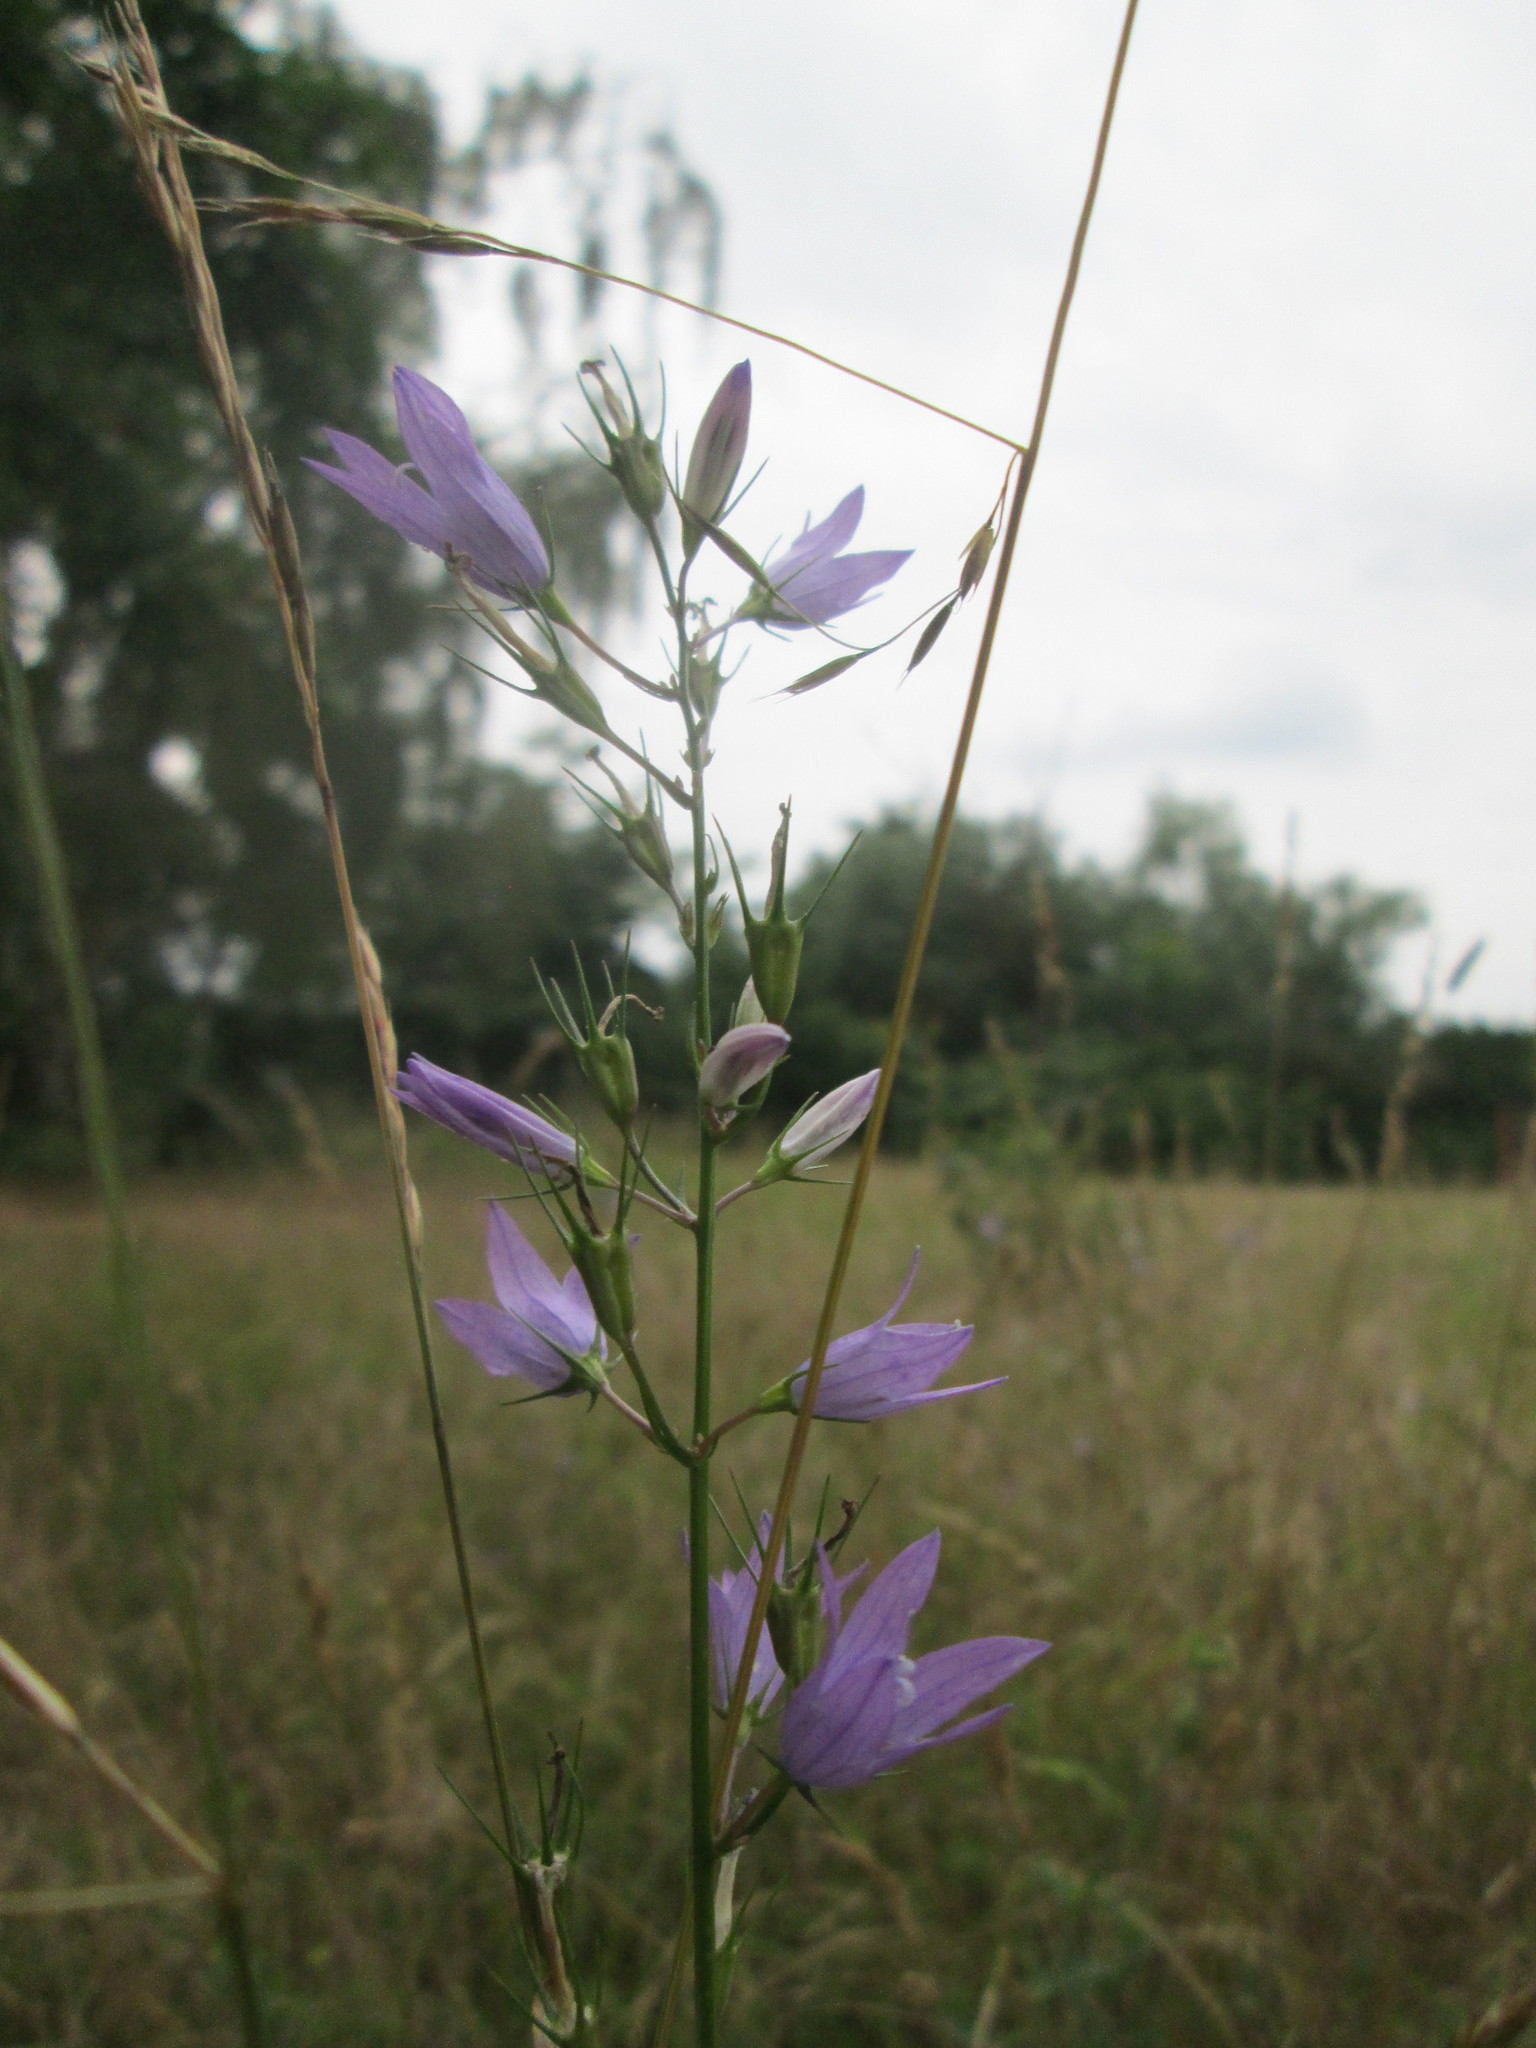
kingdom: Plantae
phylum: Tracheophyta
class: Magnoliopsida
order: Asterales
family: Campanulaceae
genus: Campanula
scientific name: Campanula rapunculus
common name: Rampion bellflower
